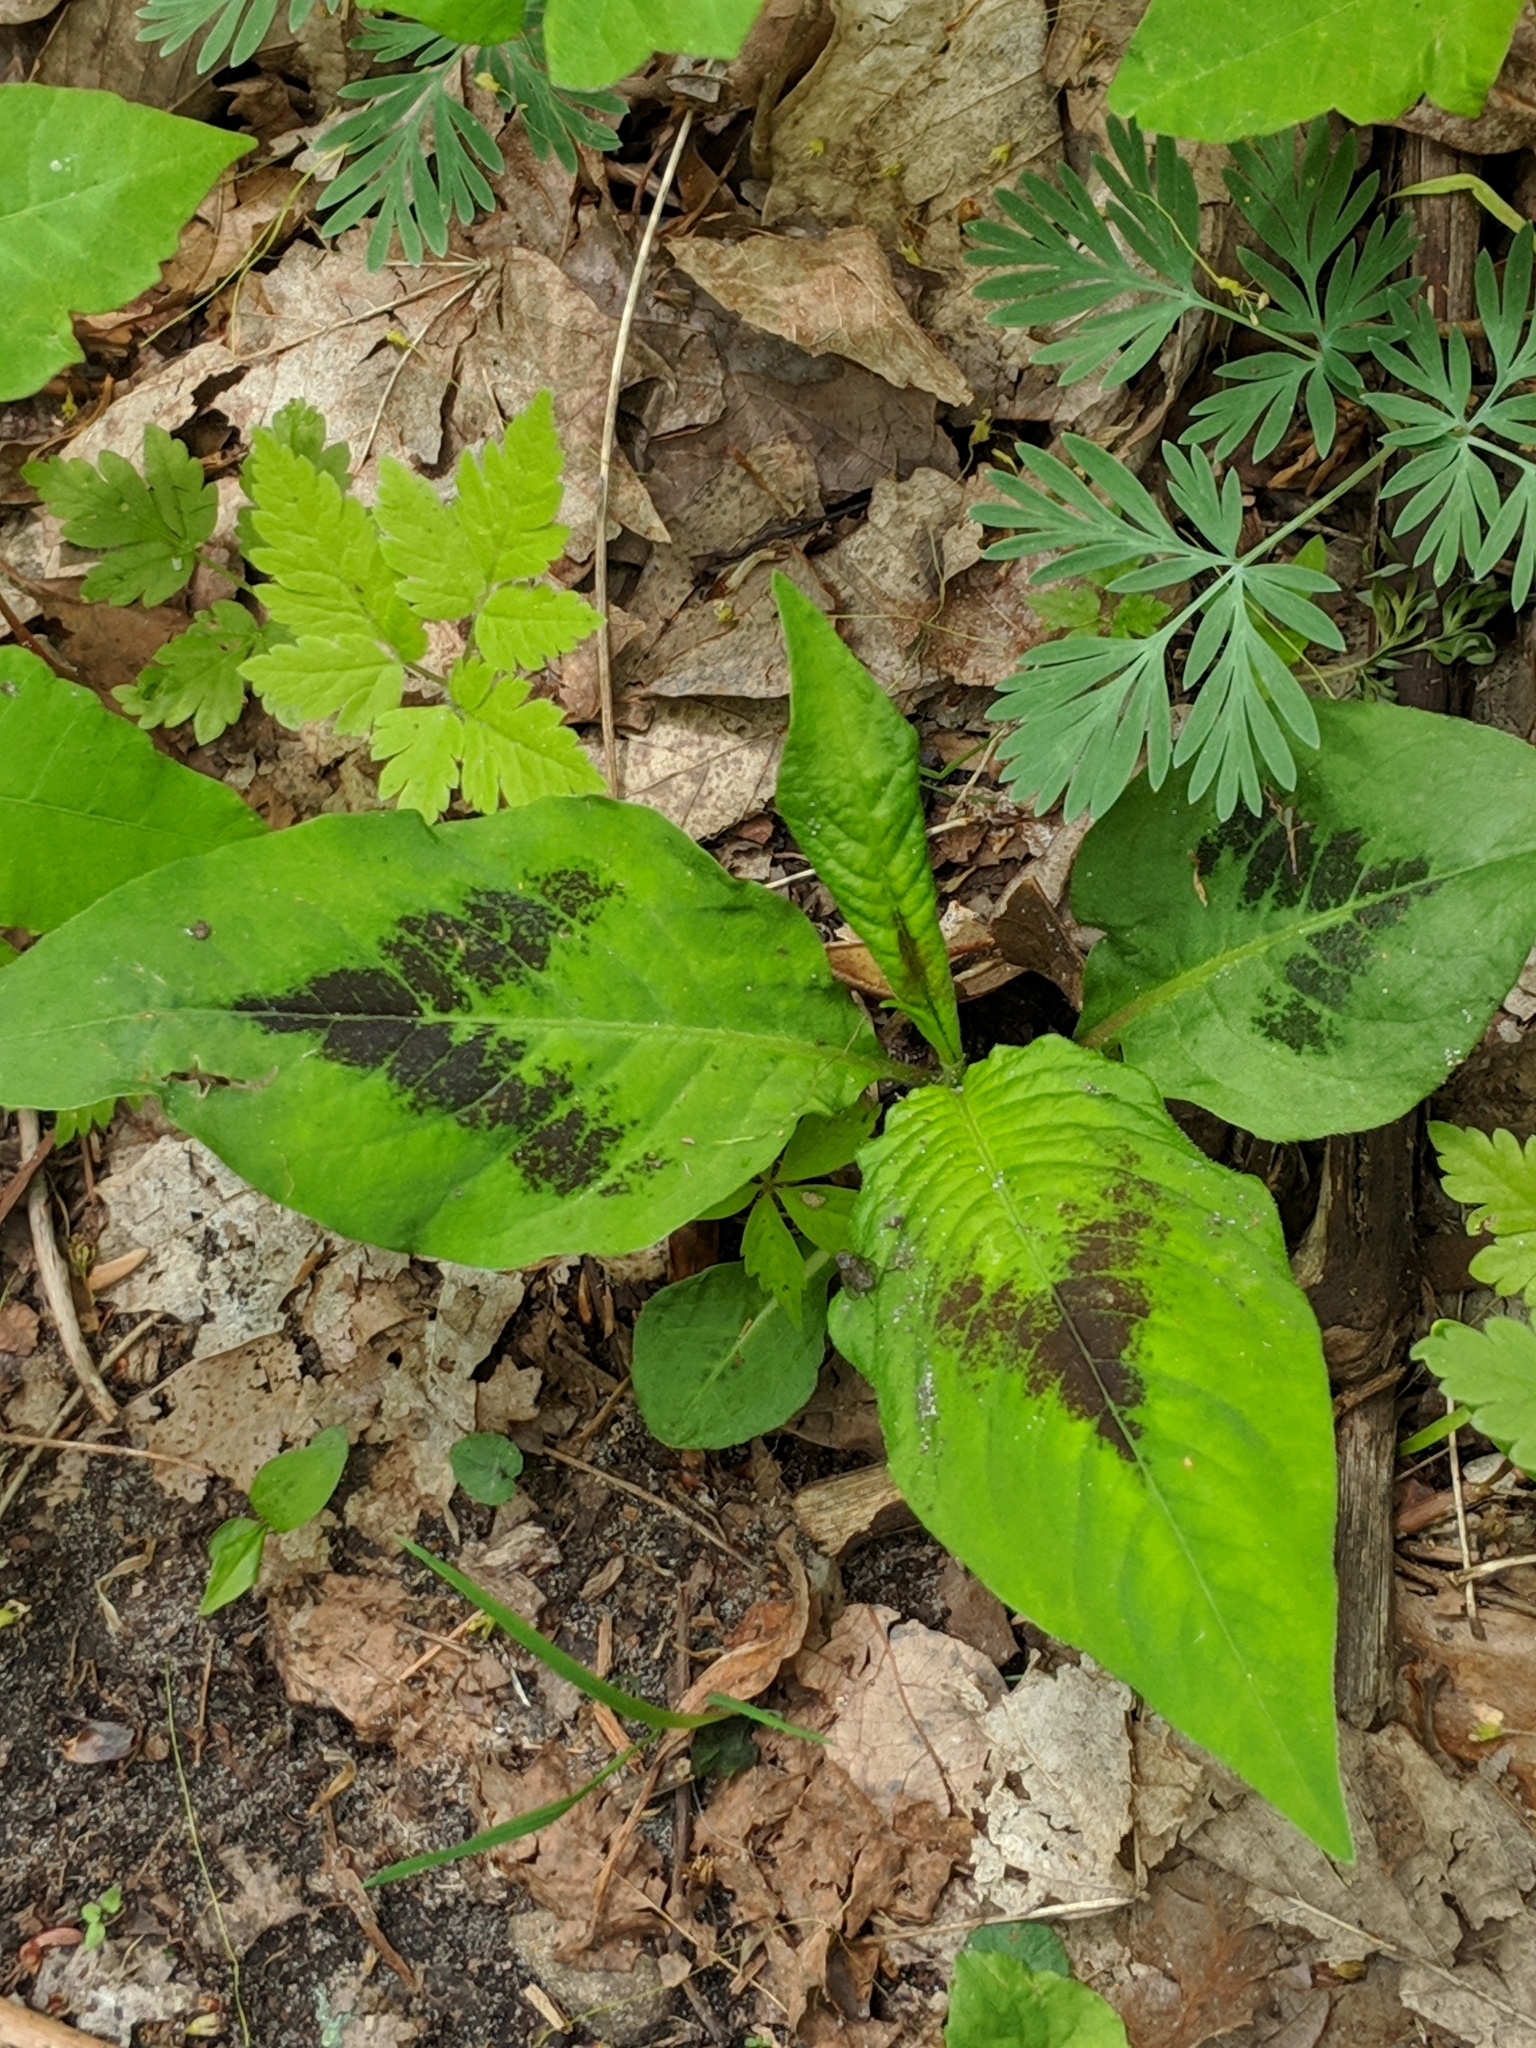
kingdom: Plantae
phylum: Tracheophyta
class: Magnoliopsida
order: Caryophyllales
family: Polygonaceae
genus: Persicaria
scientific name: Persicaria virginiana
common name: Jumpseed
